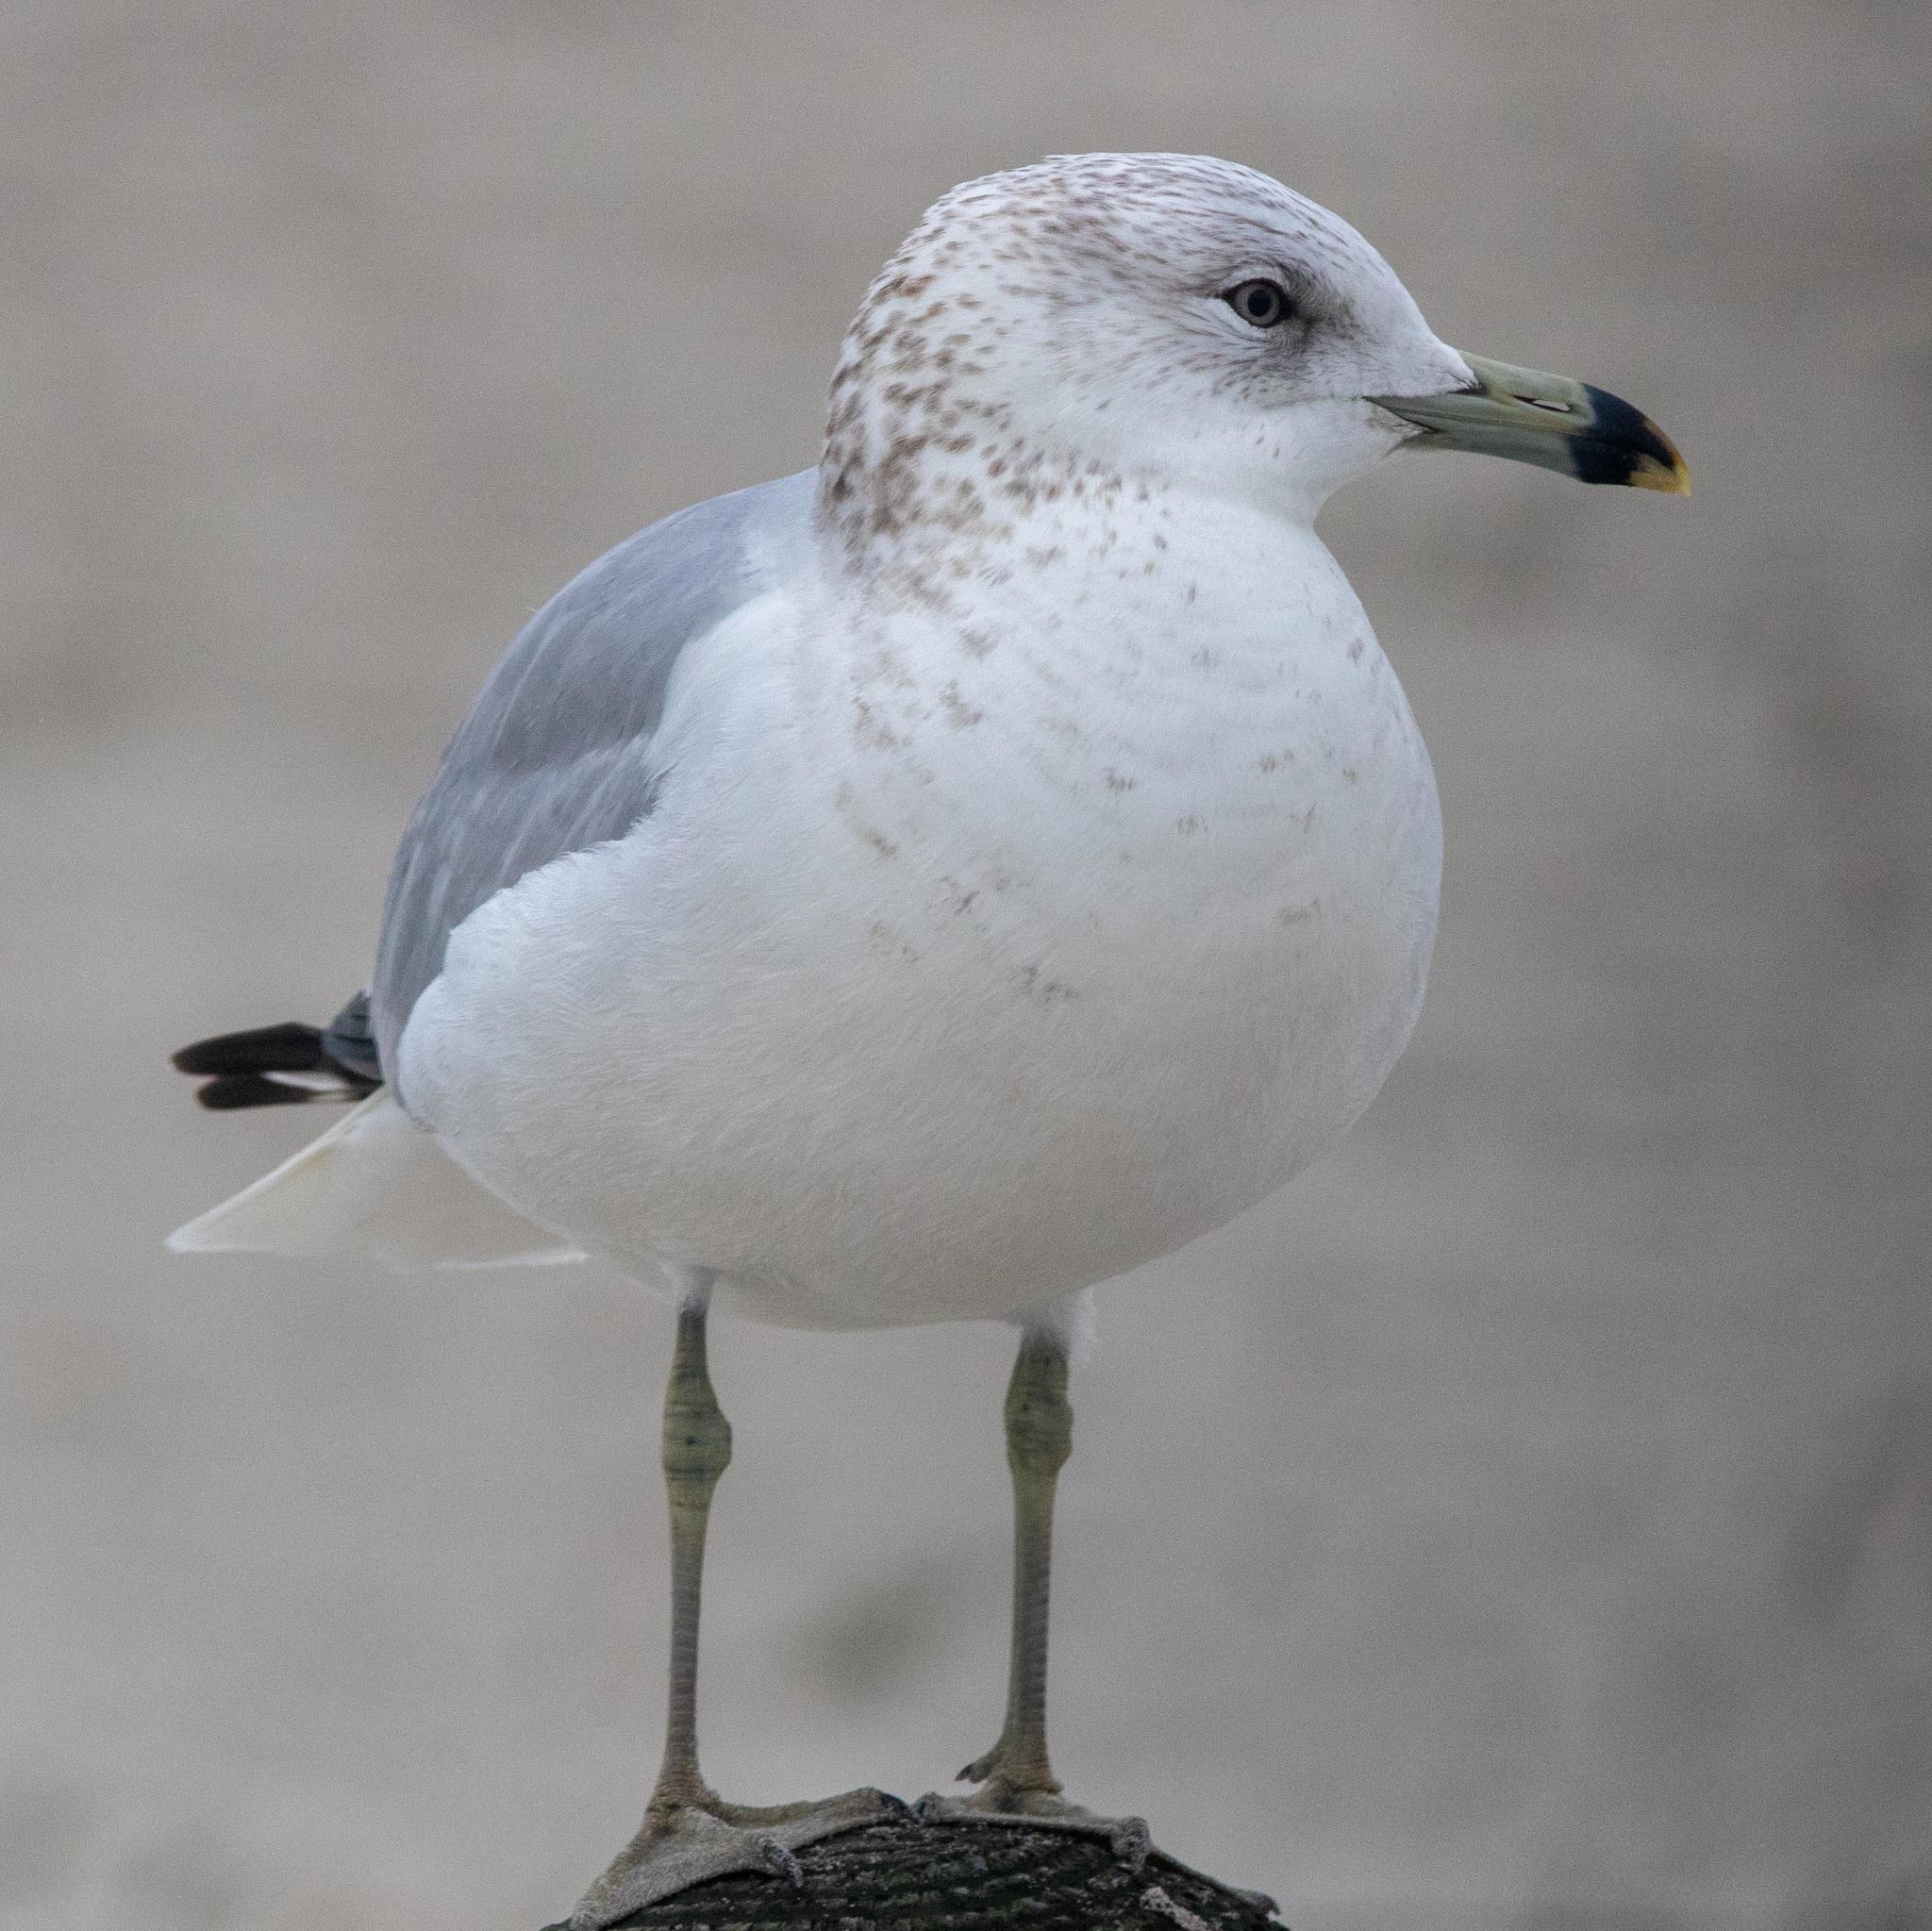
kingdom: Animalia
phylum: Chordata
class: Aves
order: Charadriiformes
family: Laridae
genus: Larus
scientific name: Larus delawarensis
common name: Ring-billed gull
